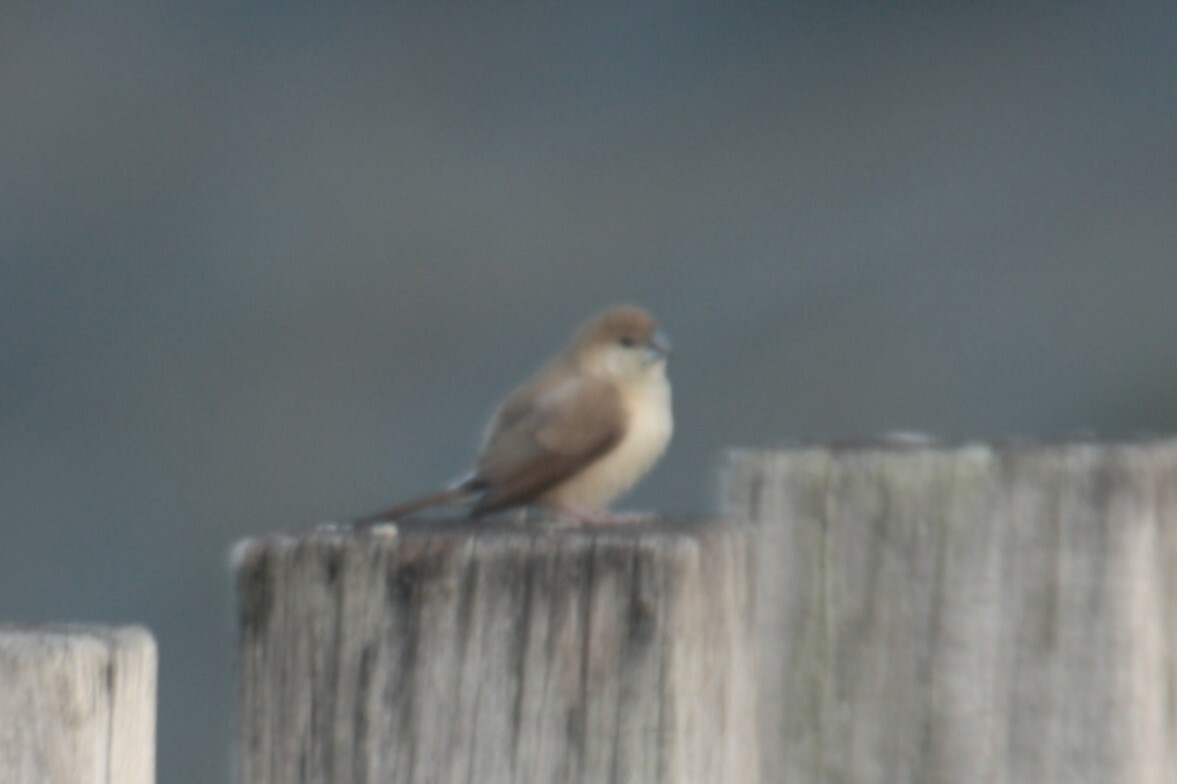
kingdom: Animalia
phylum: Chordata
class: Aves
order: Passeriformes
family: Estrildidae
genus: Euodice
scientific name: Euodice malabarica
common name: Indian silverbill
